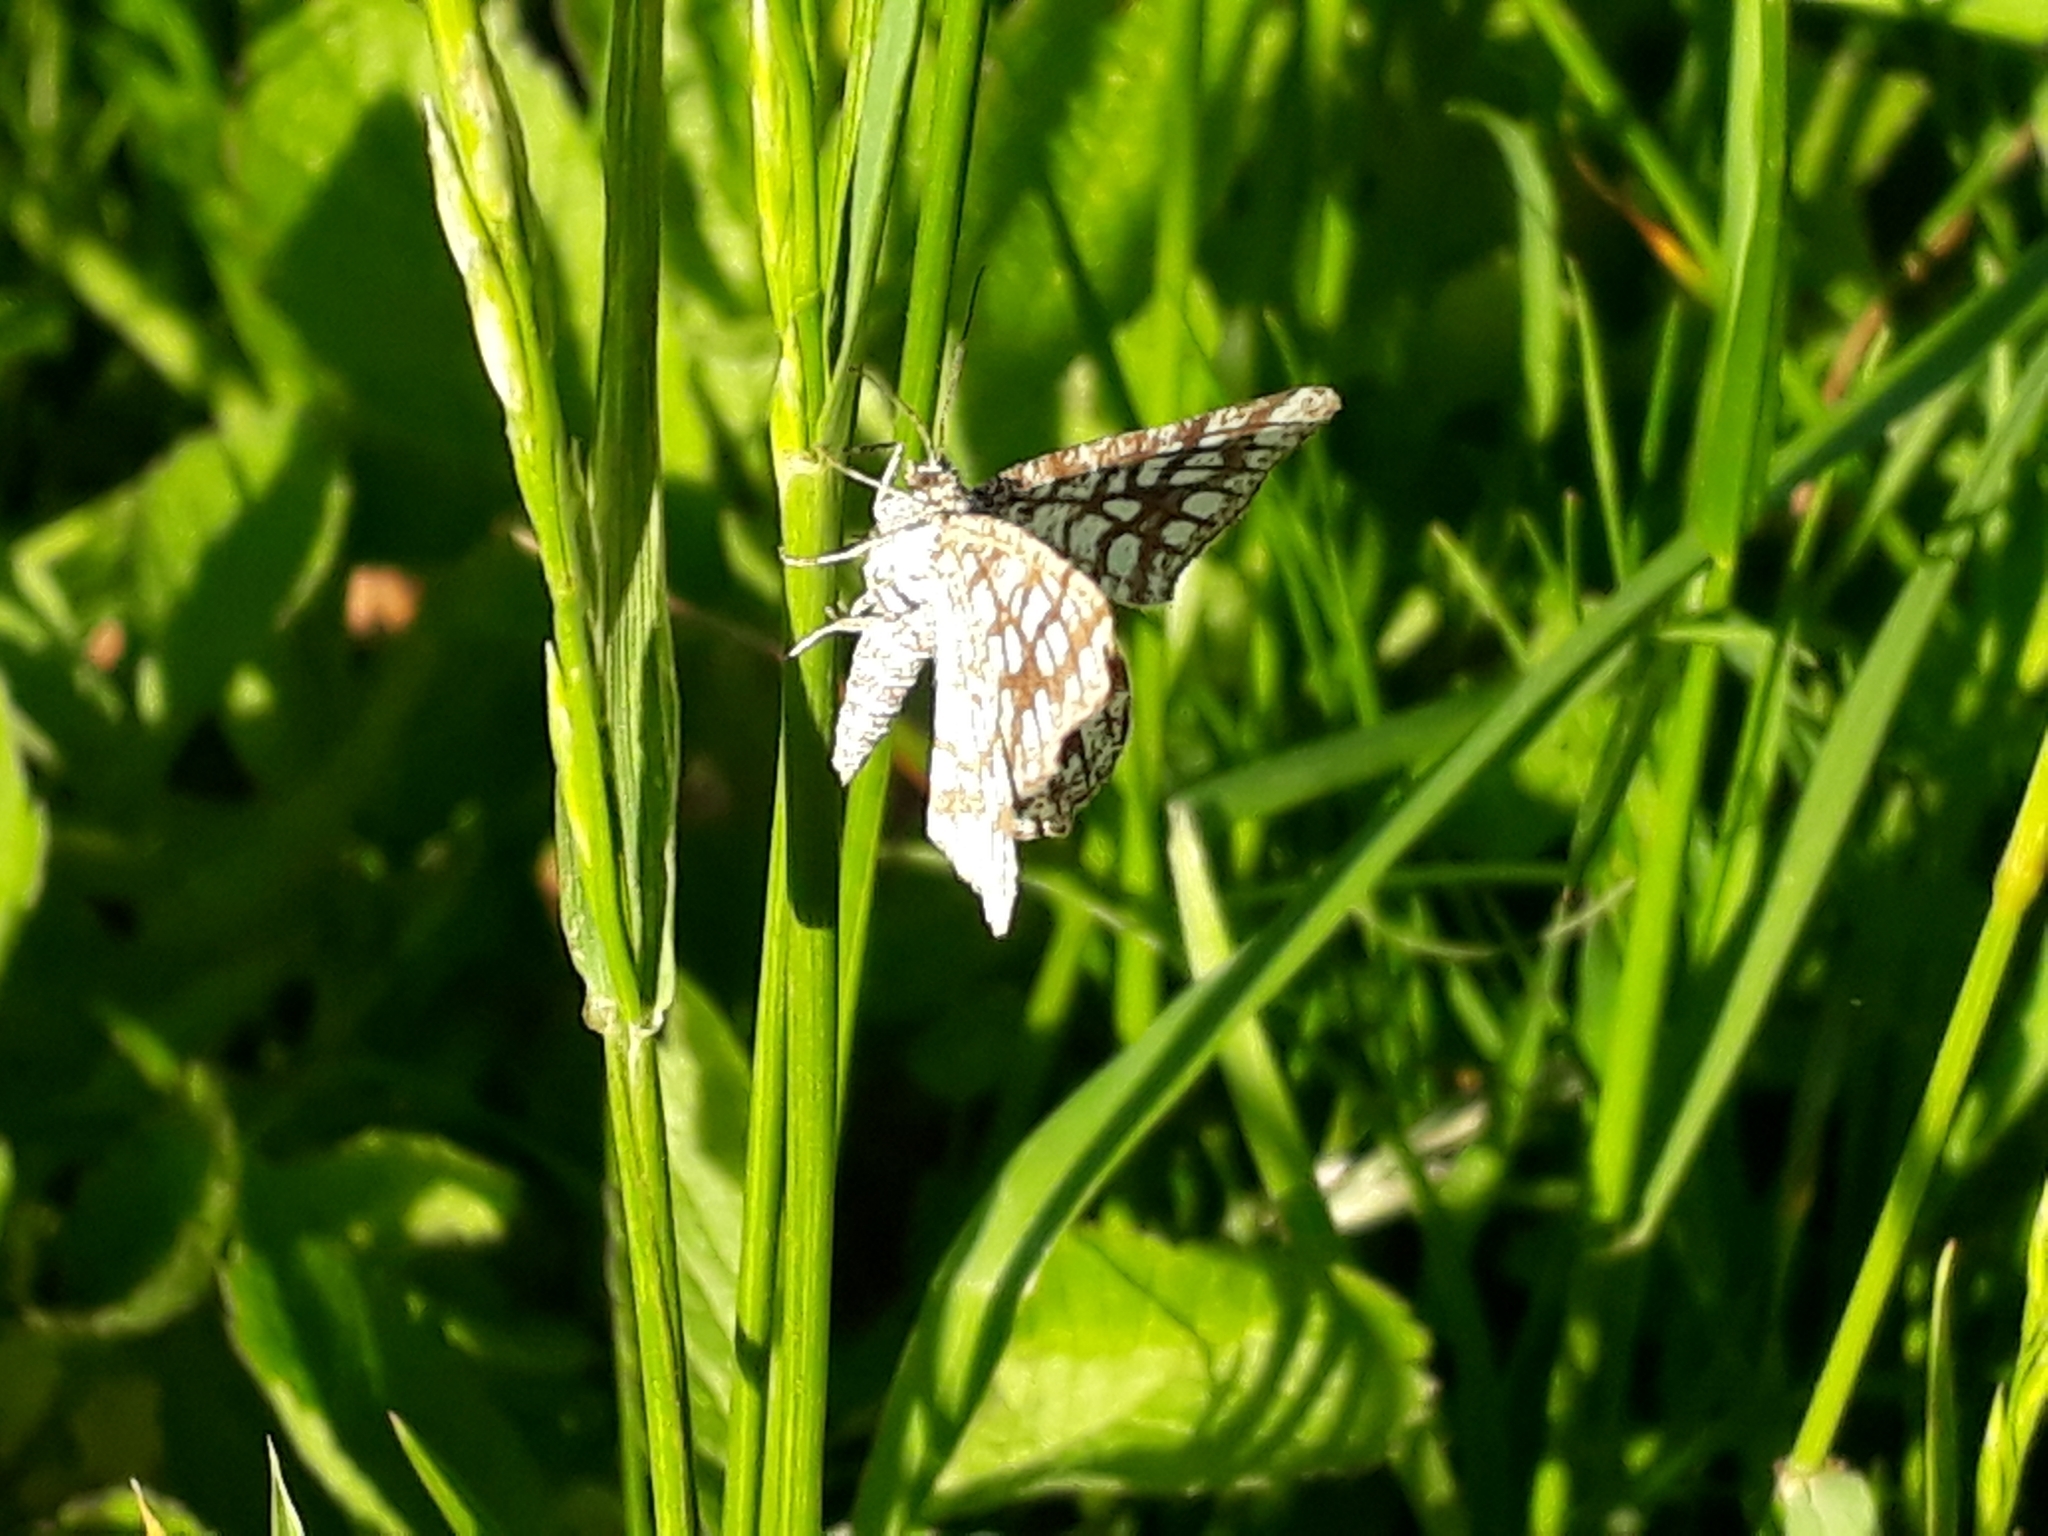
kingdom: Animalia
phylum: Arthropoda
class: Insecta
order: Lepidoptera
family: Geometridae
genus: Chiasmia
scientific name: Chiasmia clathrata
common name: Latticed heath
